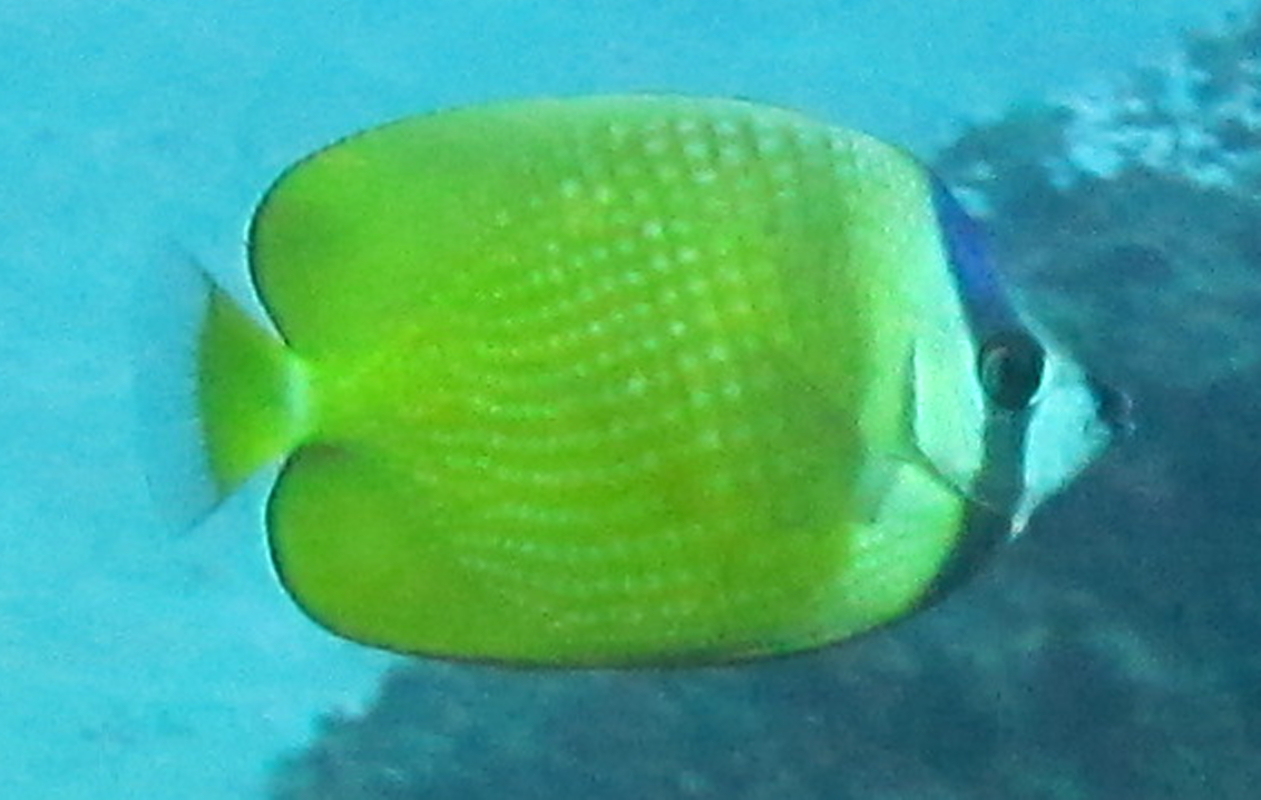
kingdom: Animalia
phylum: Chordata
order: Perciformes
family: Chaetodontidae
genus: Chaetodon
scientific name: Chaetodon kleinii
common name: Klein's butterflyfish
